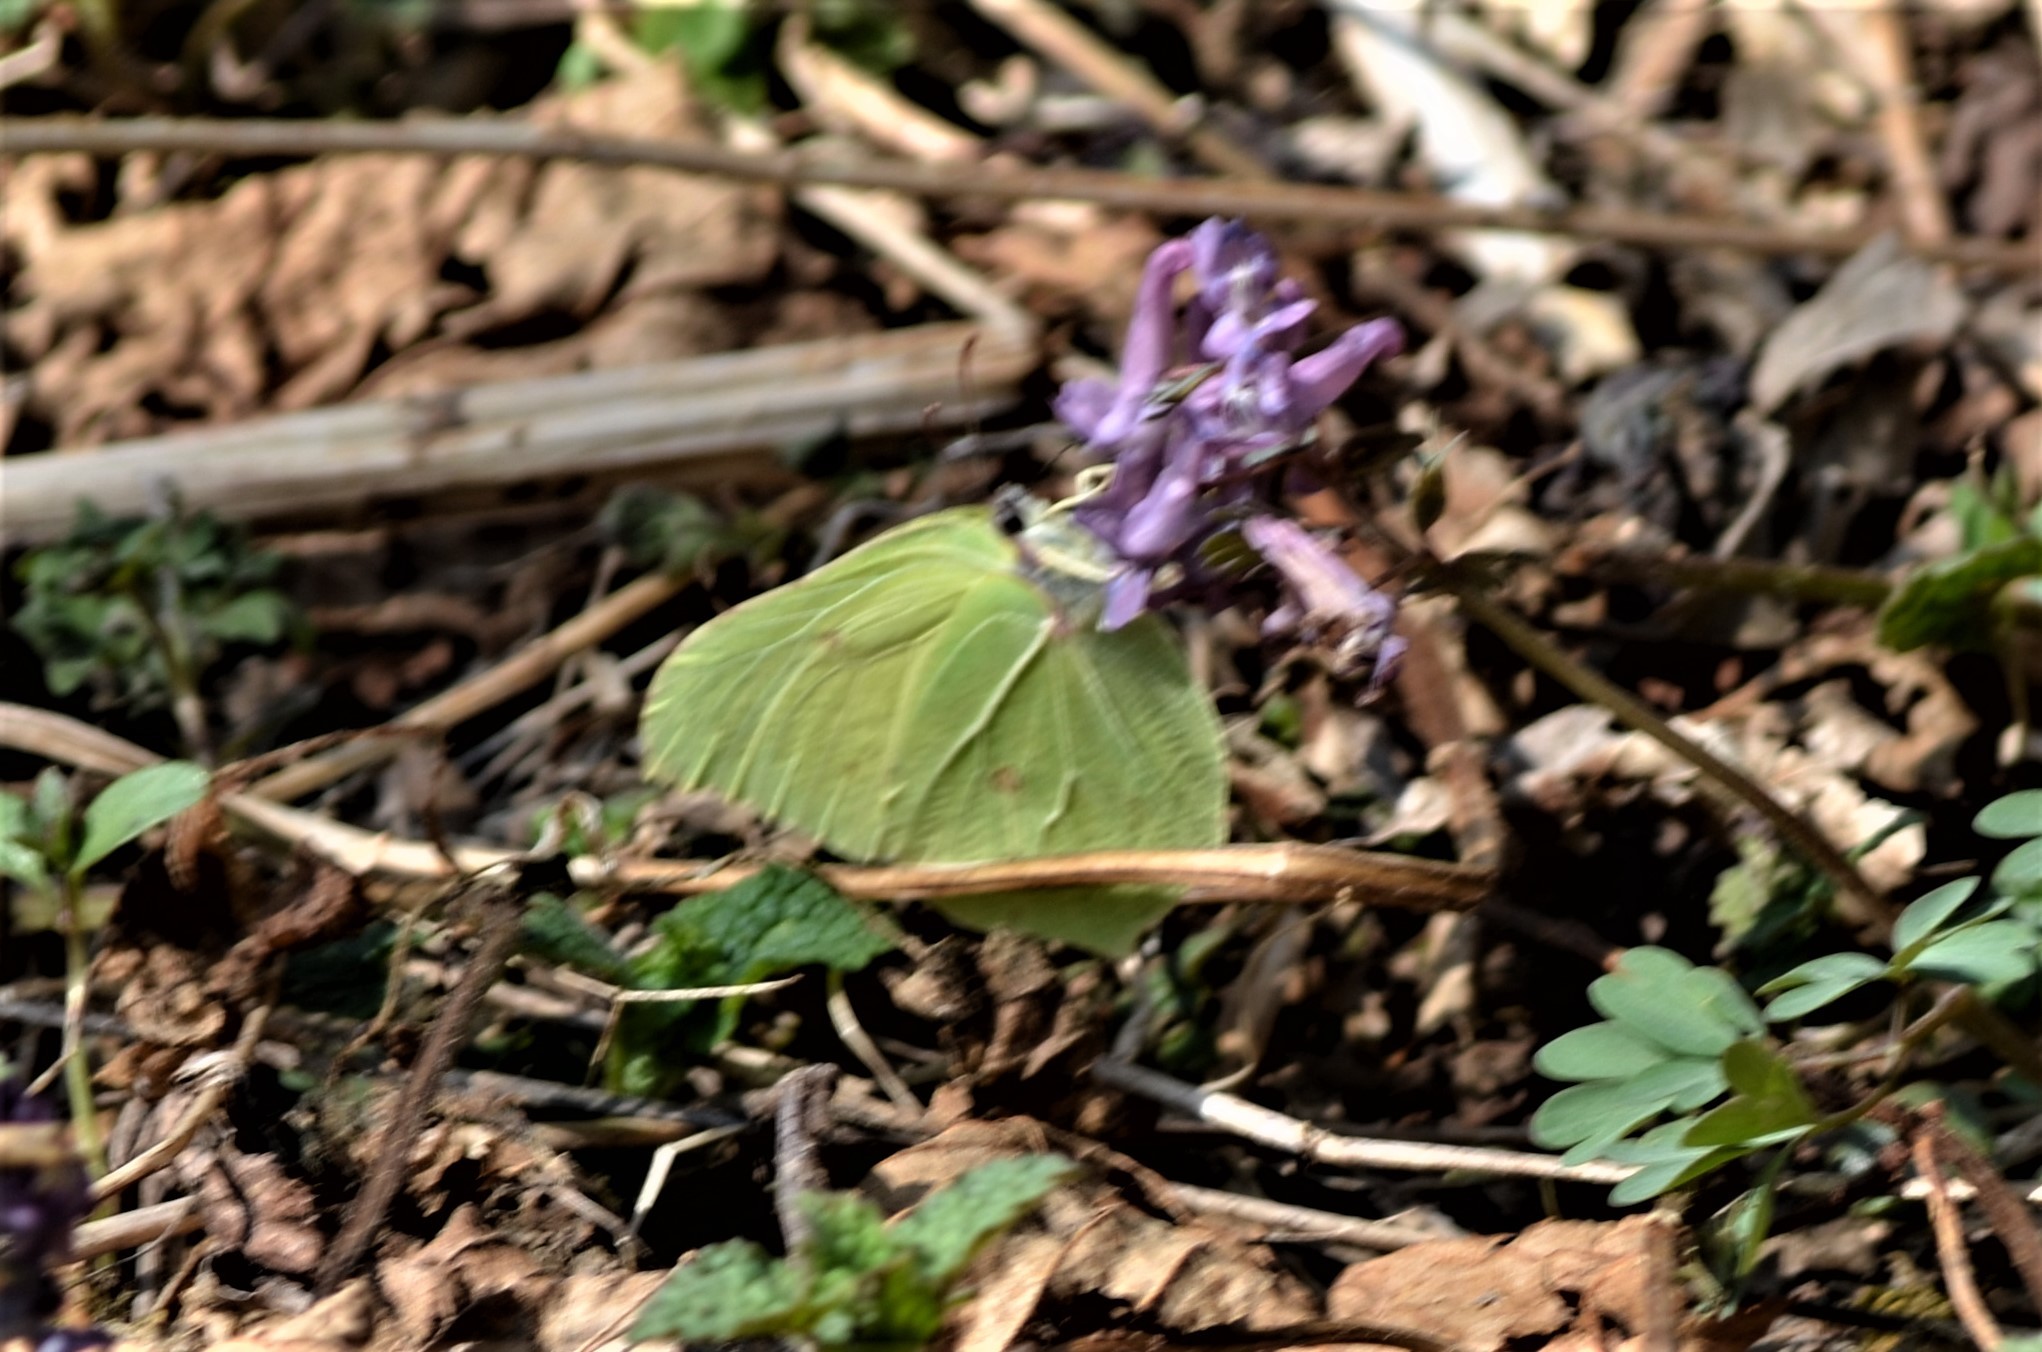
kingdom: Animalia
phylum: Arthropoda
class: Insecta
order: Lepidoptera
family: Pieridae
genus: Gonepteryx
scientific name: Gonepteryx rhamni
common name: Brimstone
